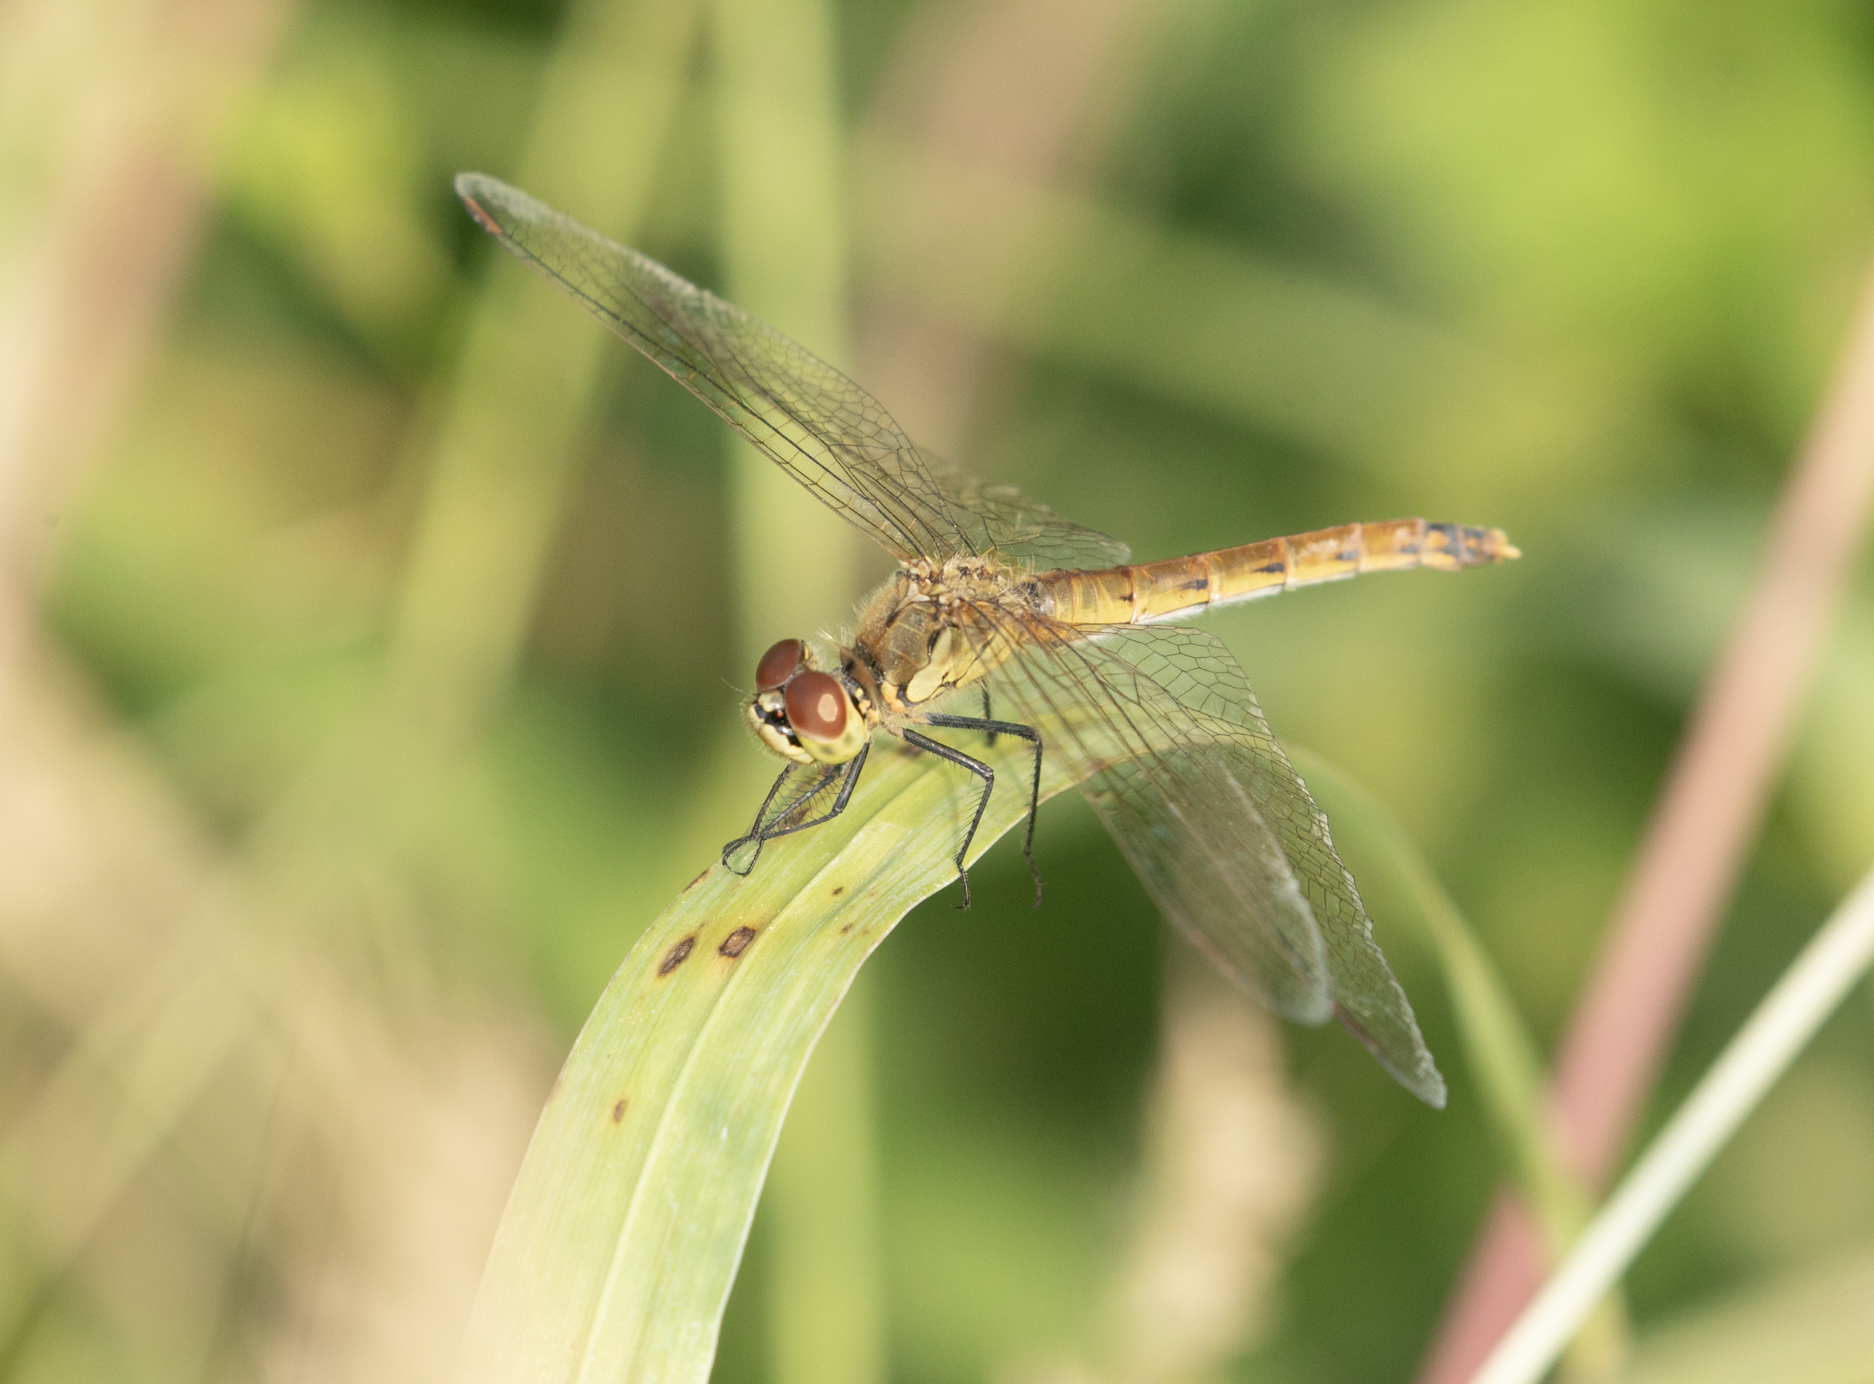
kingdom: Animalia
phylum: Arthropoda
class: Insecta
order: Odonata
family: Libellulidae
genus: Sympetrum
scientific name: Sympetrum depressiusculum
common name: Spotted darter
